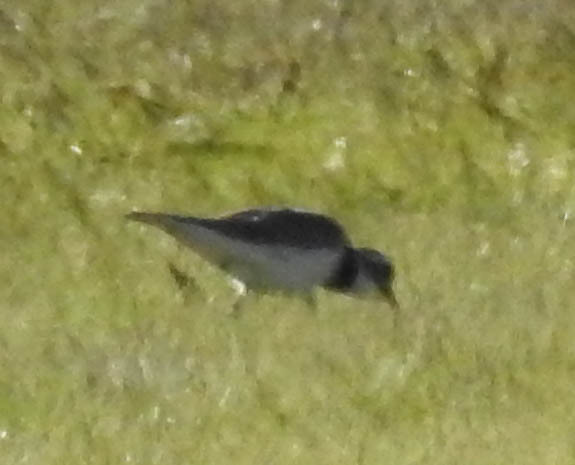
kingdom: Animalia
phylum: Chordata
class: Aves
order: Charadriiformes
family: Charadriidae
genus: Charadrius
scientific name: Charadrius vociferus
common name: Killdeer
